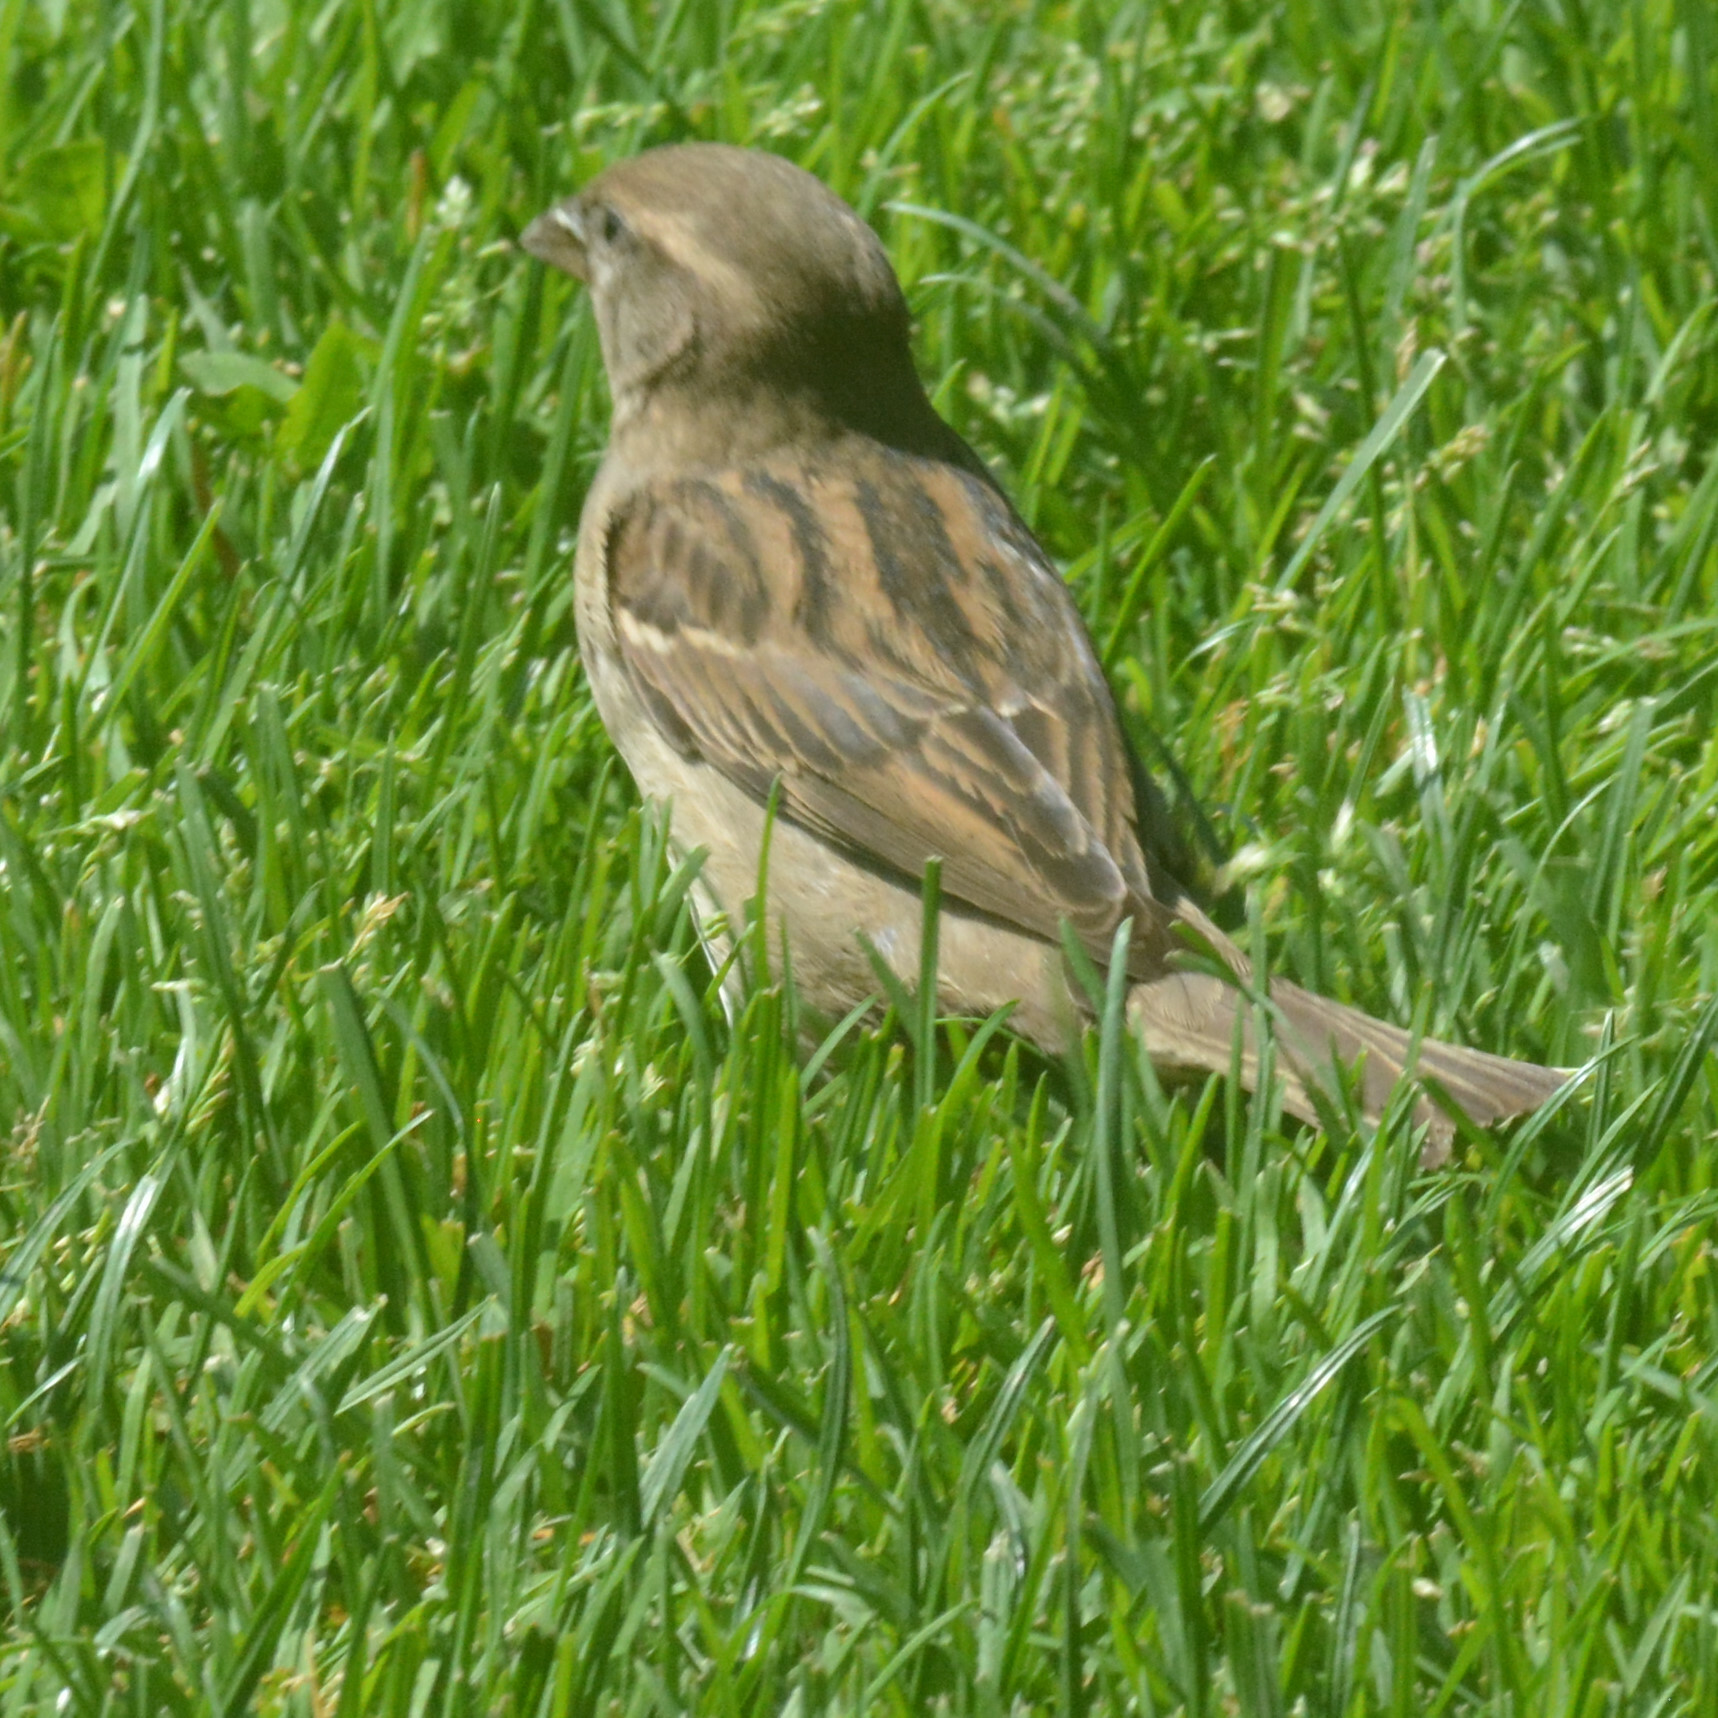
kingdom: Animalia
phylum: Chordata
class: Aves
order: Passeriformes
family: Passeridae
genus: Passer
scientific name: Passer domesticus
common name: House sparrow
